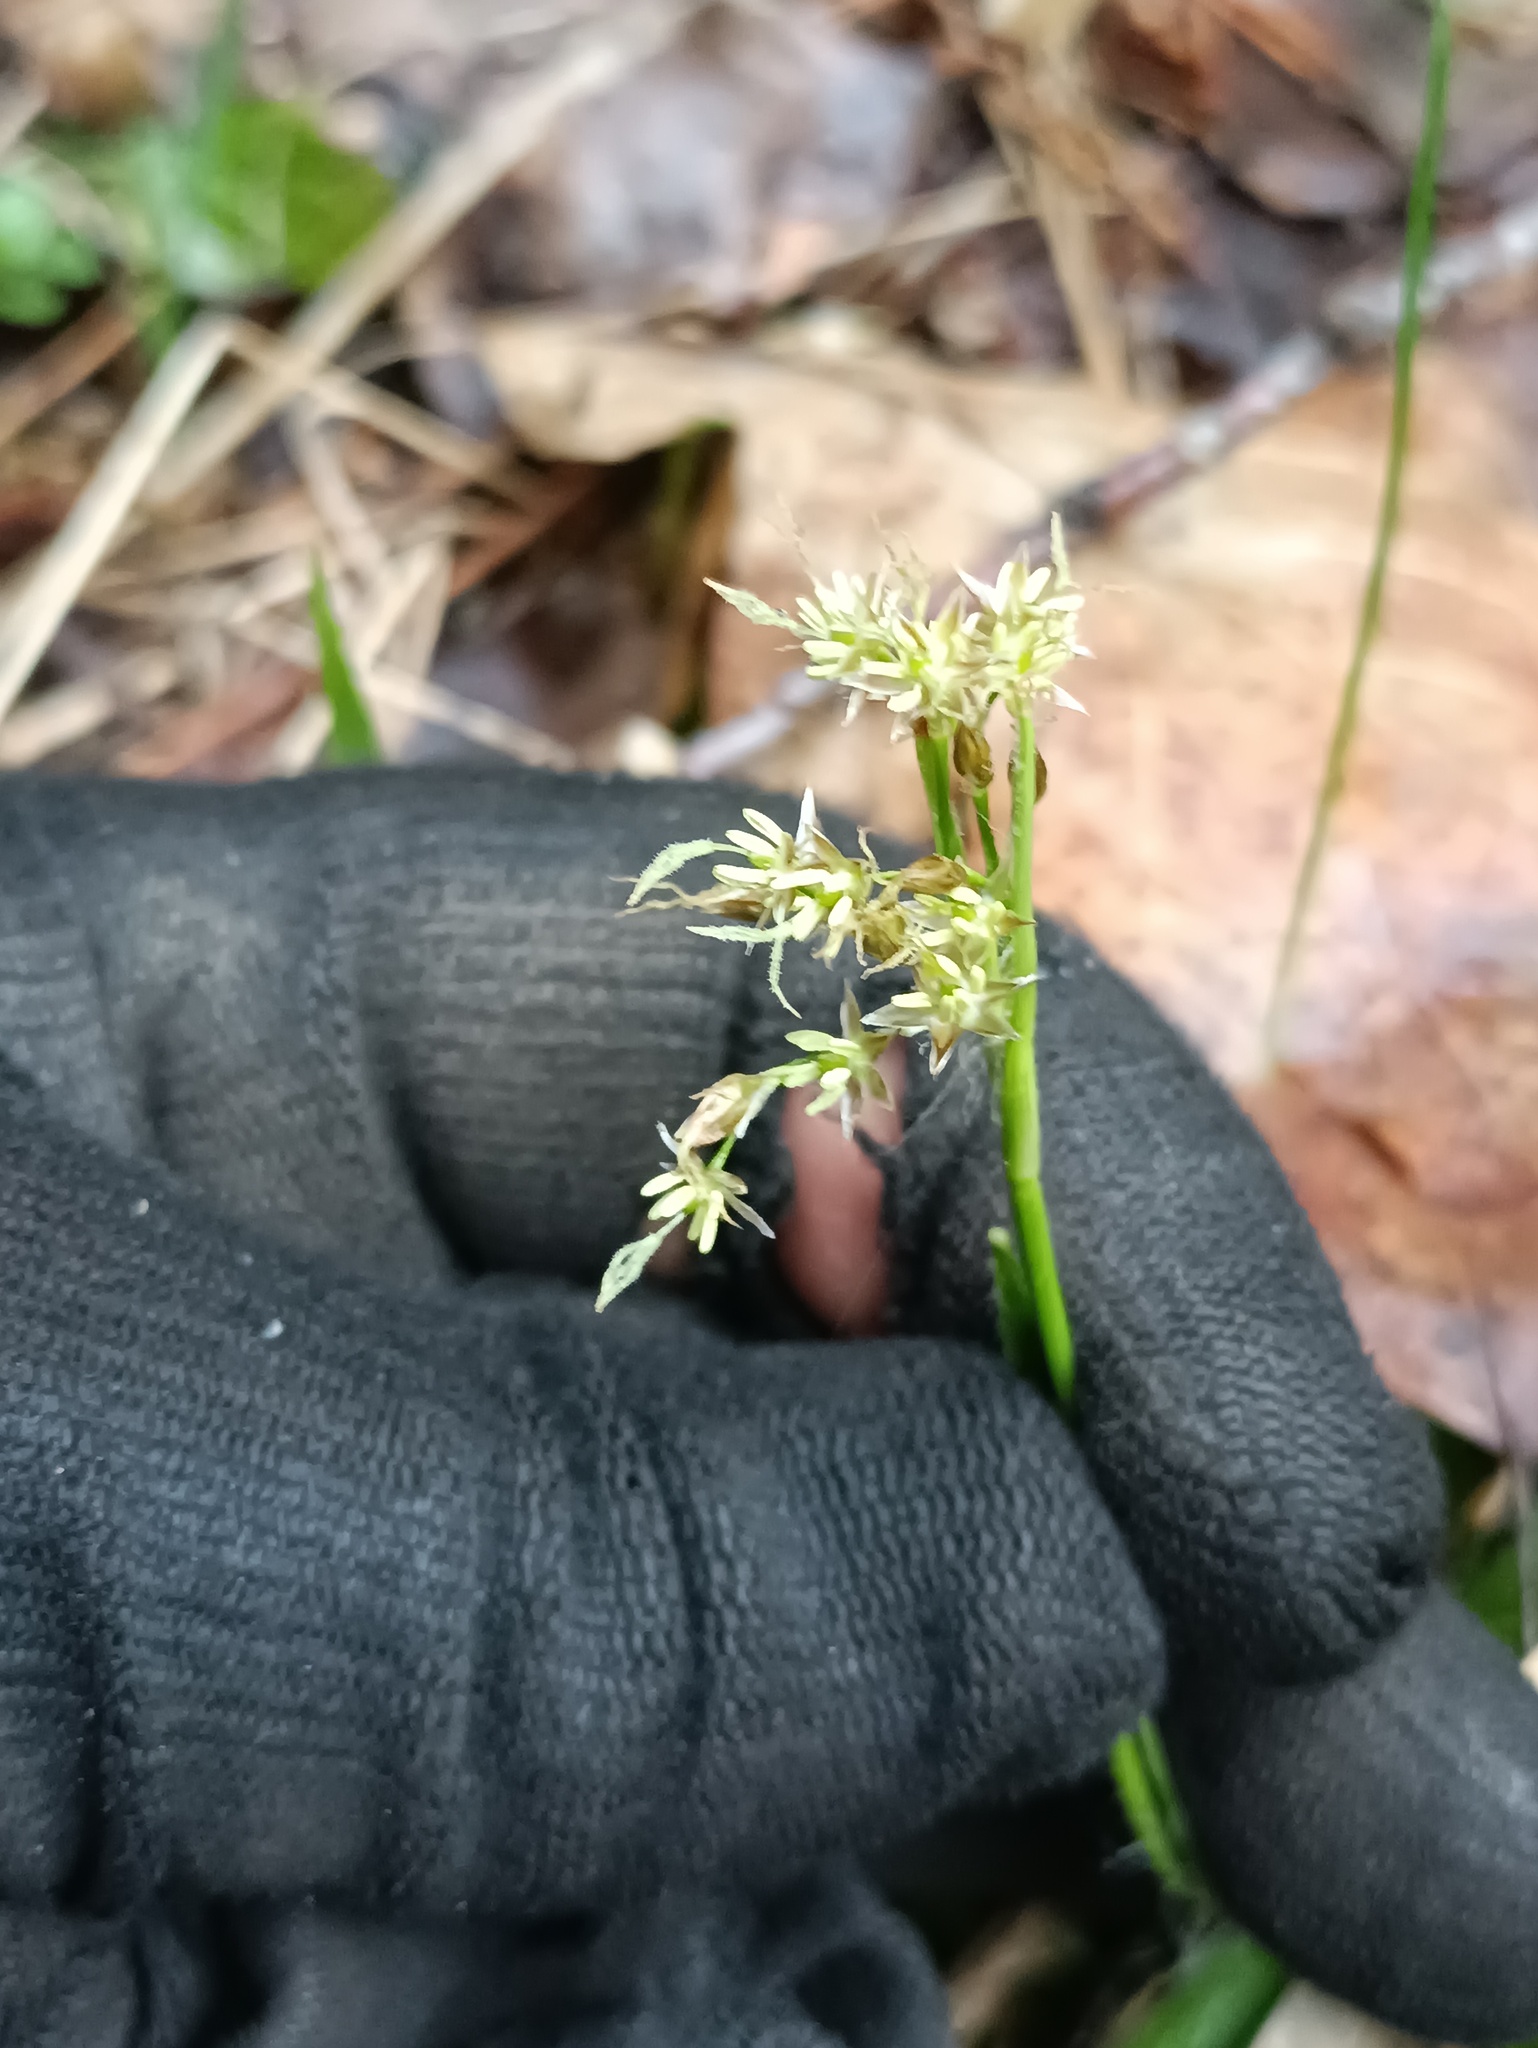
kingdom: Plantae
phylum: Tracheophyta
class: Liliopsida
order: Poales
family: Juncaceae
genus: Luzula
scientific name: Luzula pilosa
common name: Hairy wood-rush
